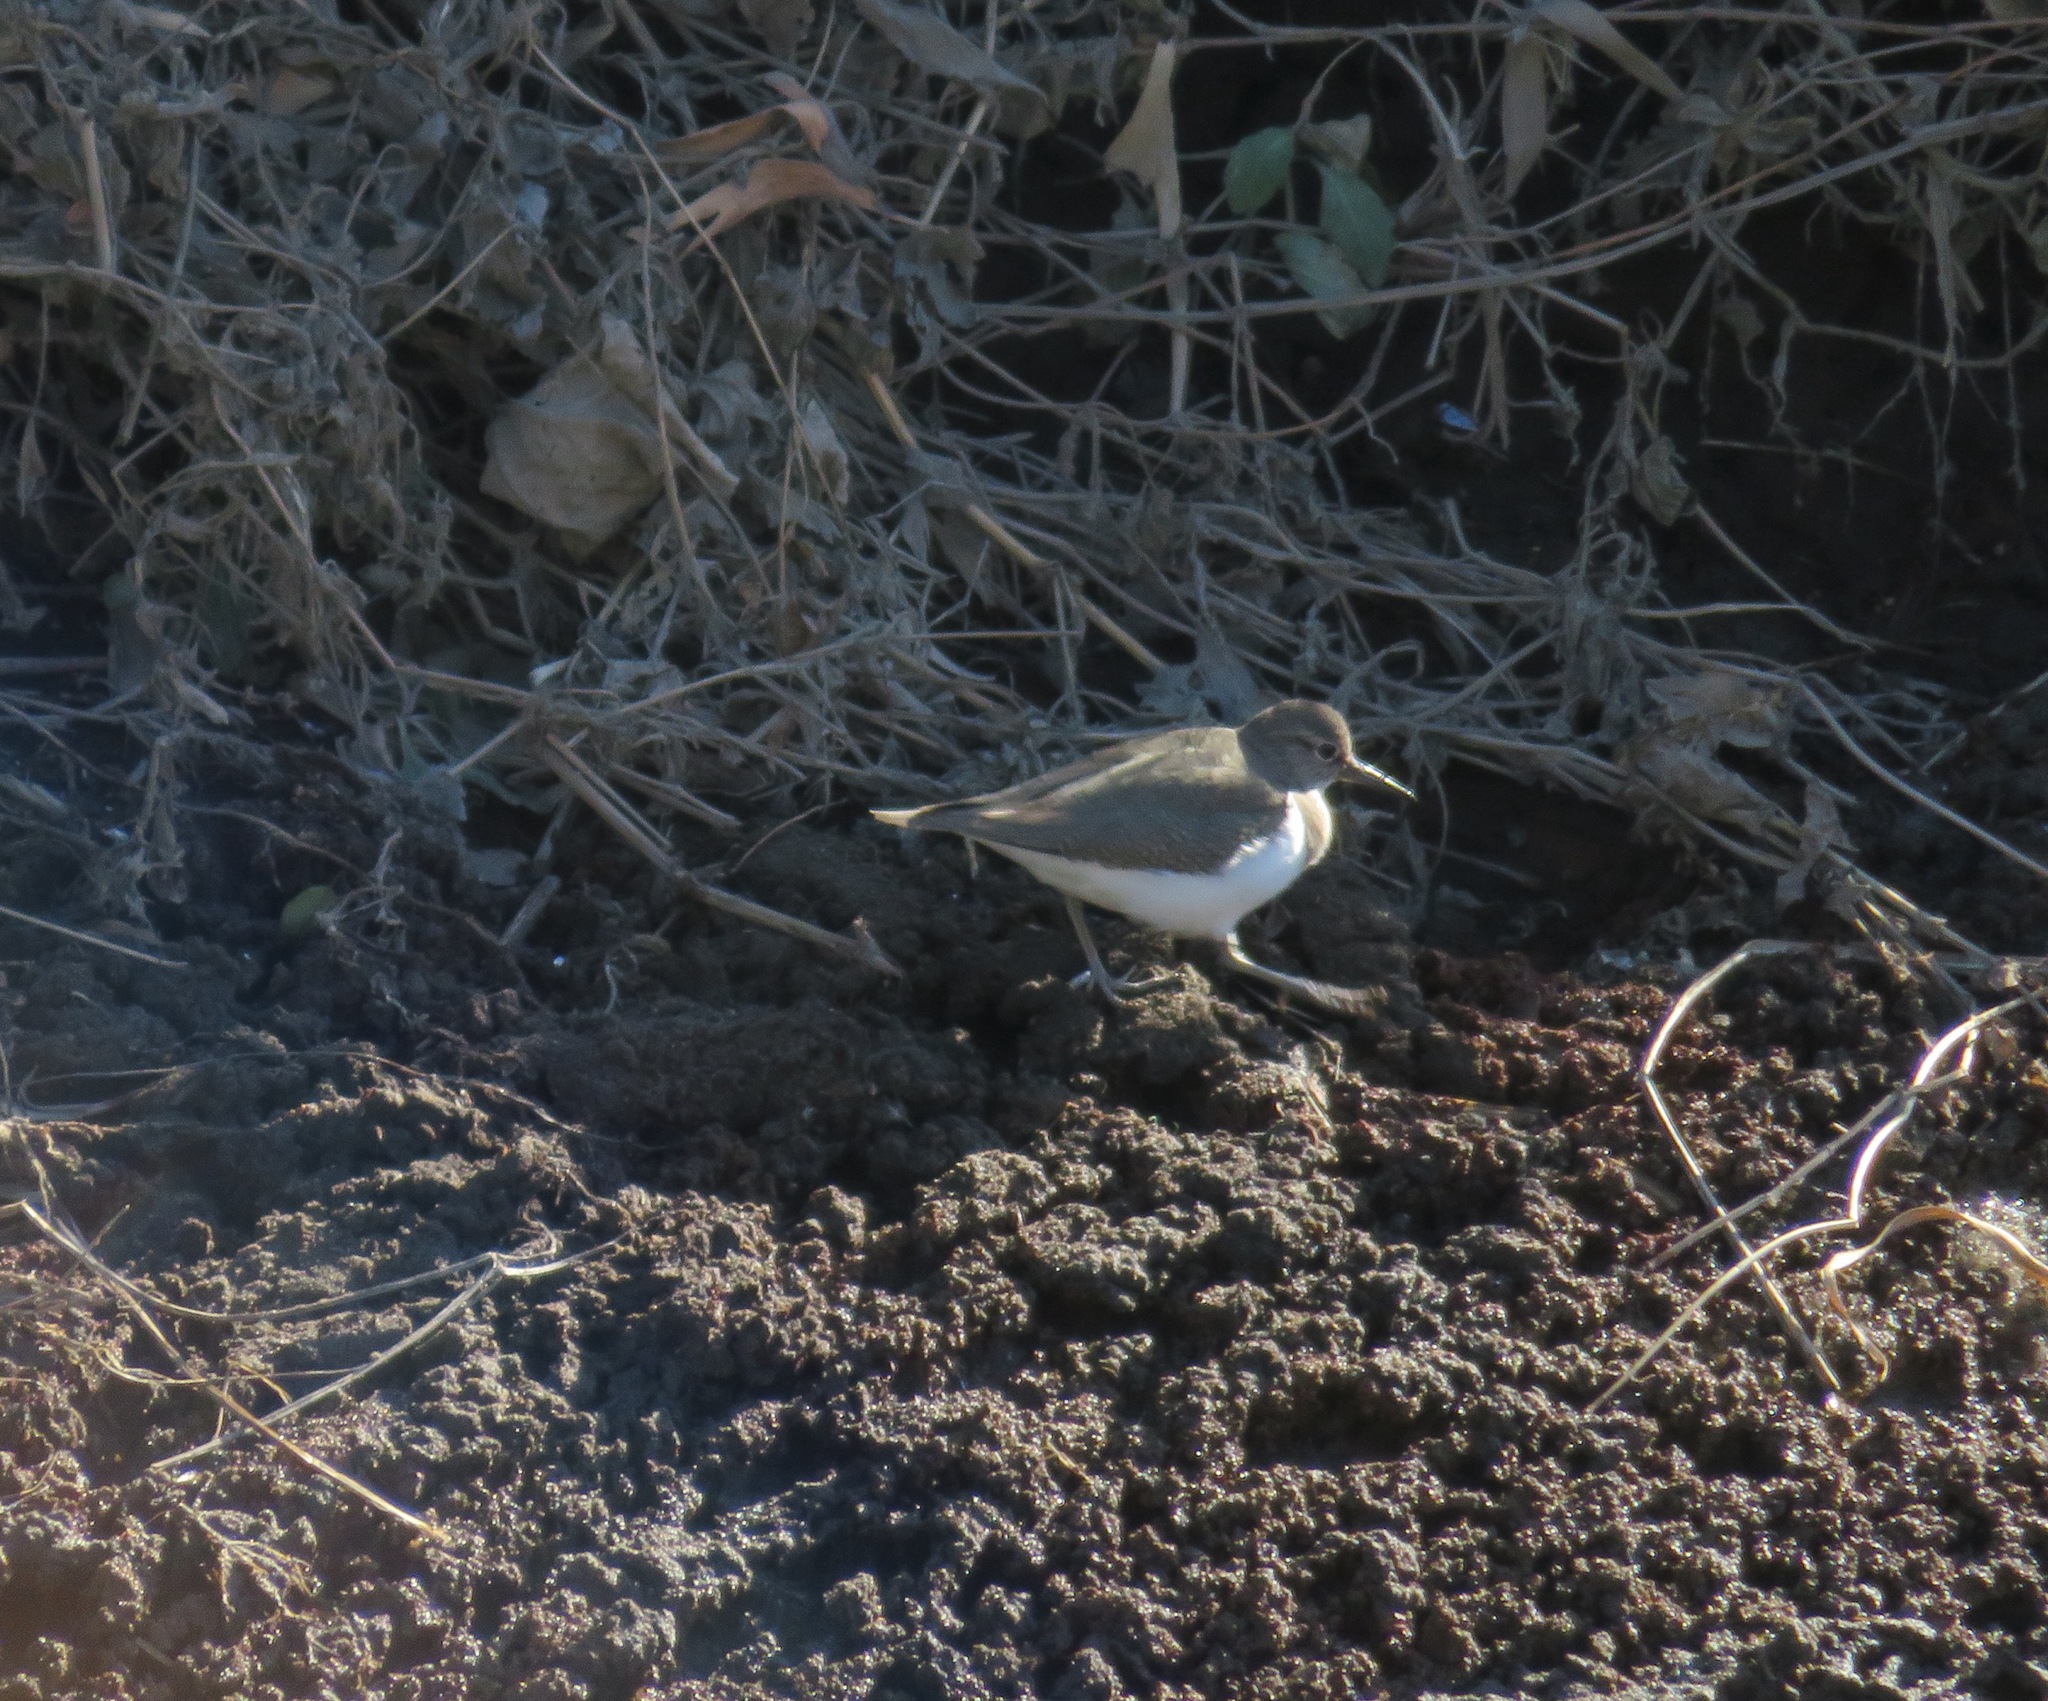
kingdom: Animalia
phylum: Chordata
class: Aves
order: Charadriiformes
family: Scolopacidae
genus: Actitis
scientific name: Actitis hypoleucos
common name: Common sandpiper
